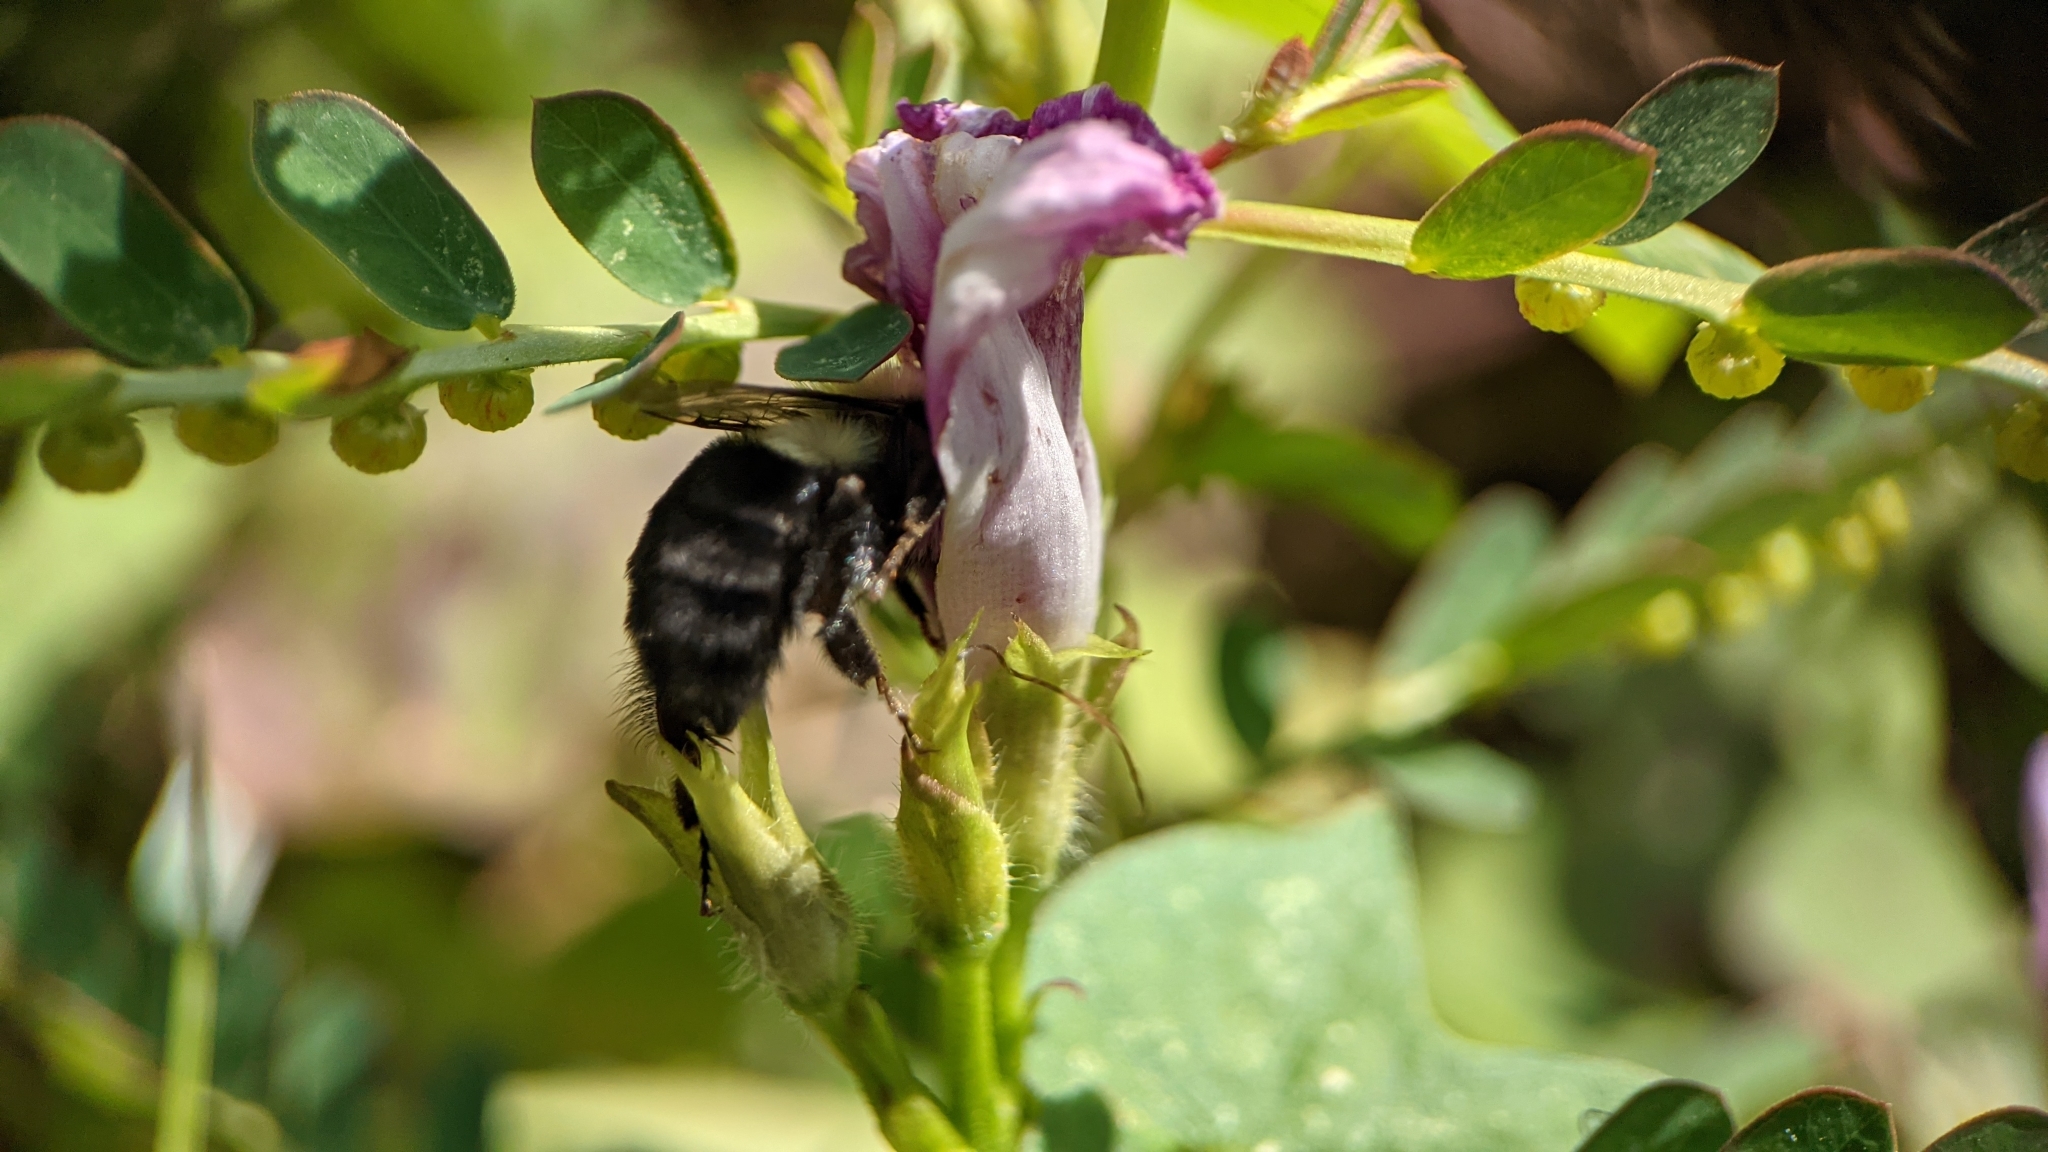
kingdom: Animalia
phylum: Arthropoda
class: Insecta
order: Hymenoptera
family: Apidae
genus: Bombus
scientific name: Bombus impatiens
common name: Common eastern bumble bee
